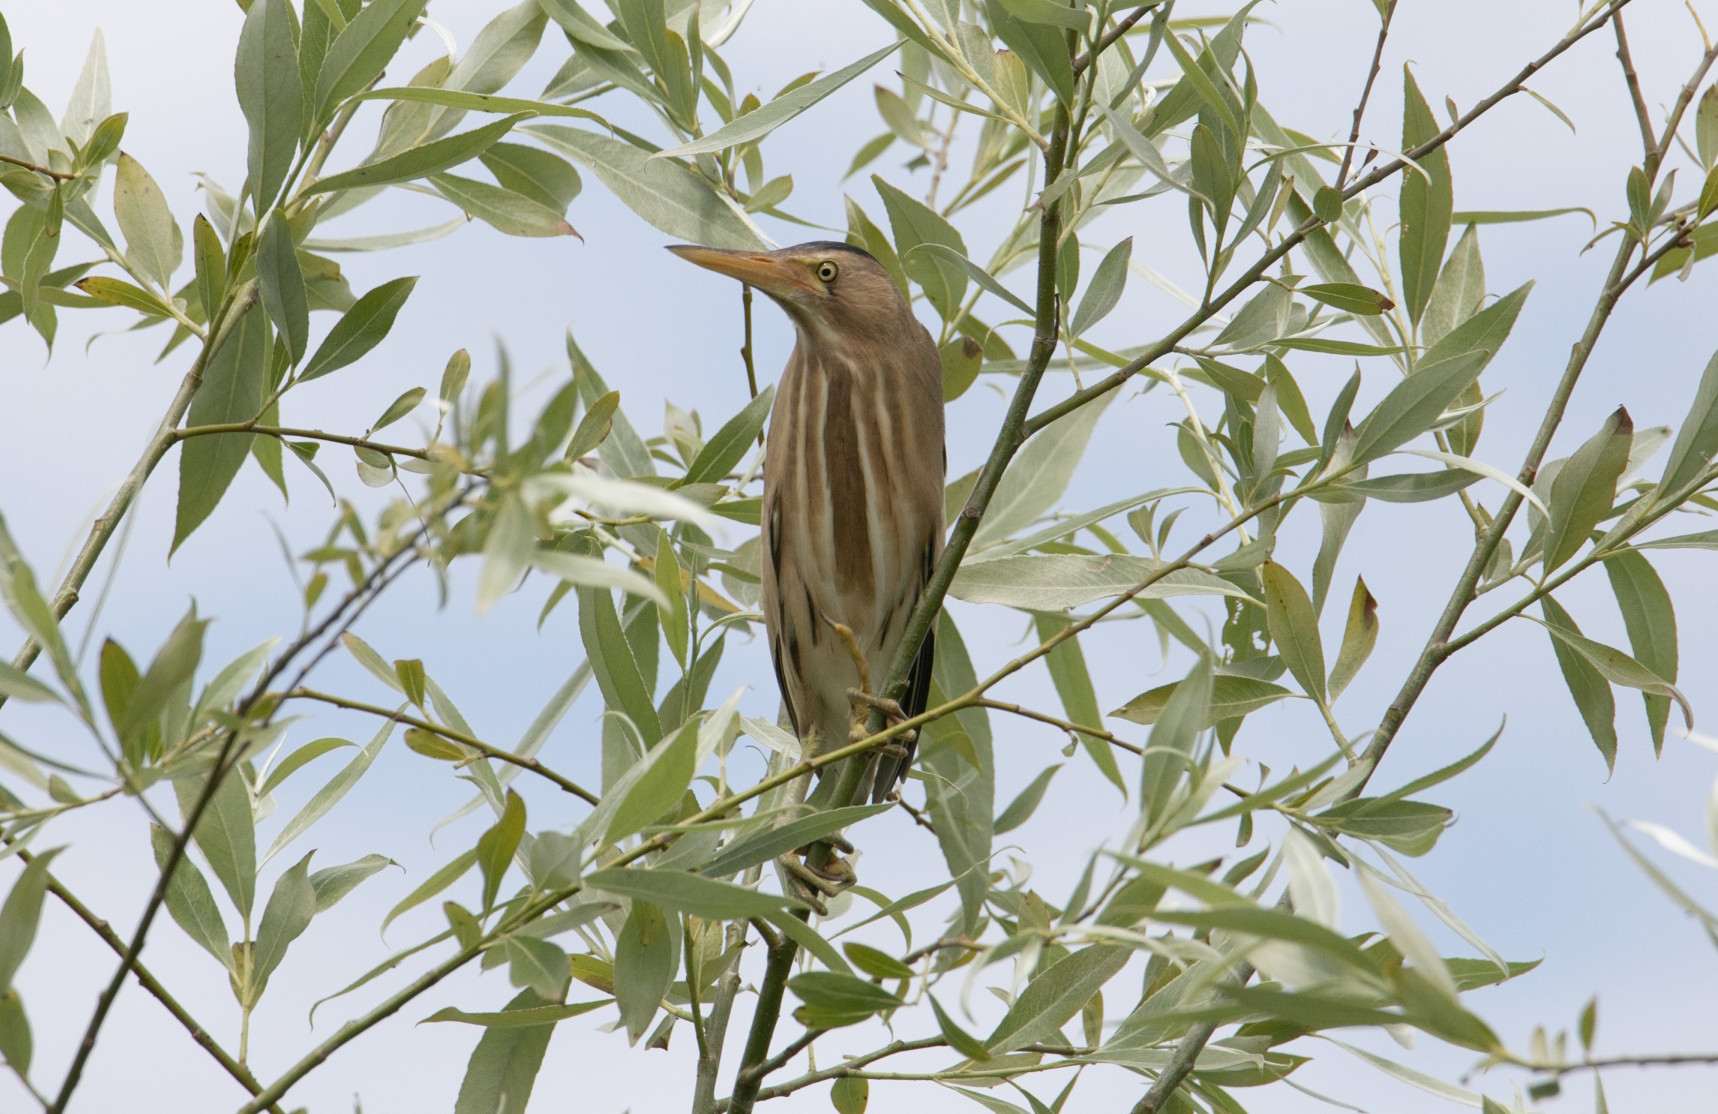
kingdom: Animalia
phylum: Chordata
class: Aves
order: Pelecaniformes
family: Ardeidae
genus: Ixobrychus
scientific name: Ixobrychus minutus
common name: Little bittern
